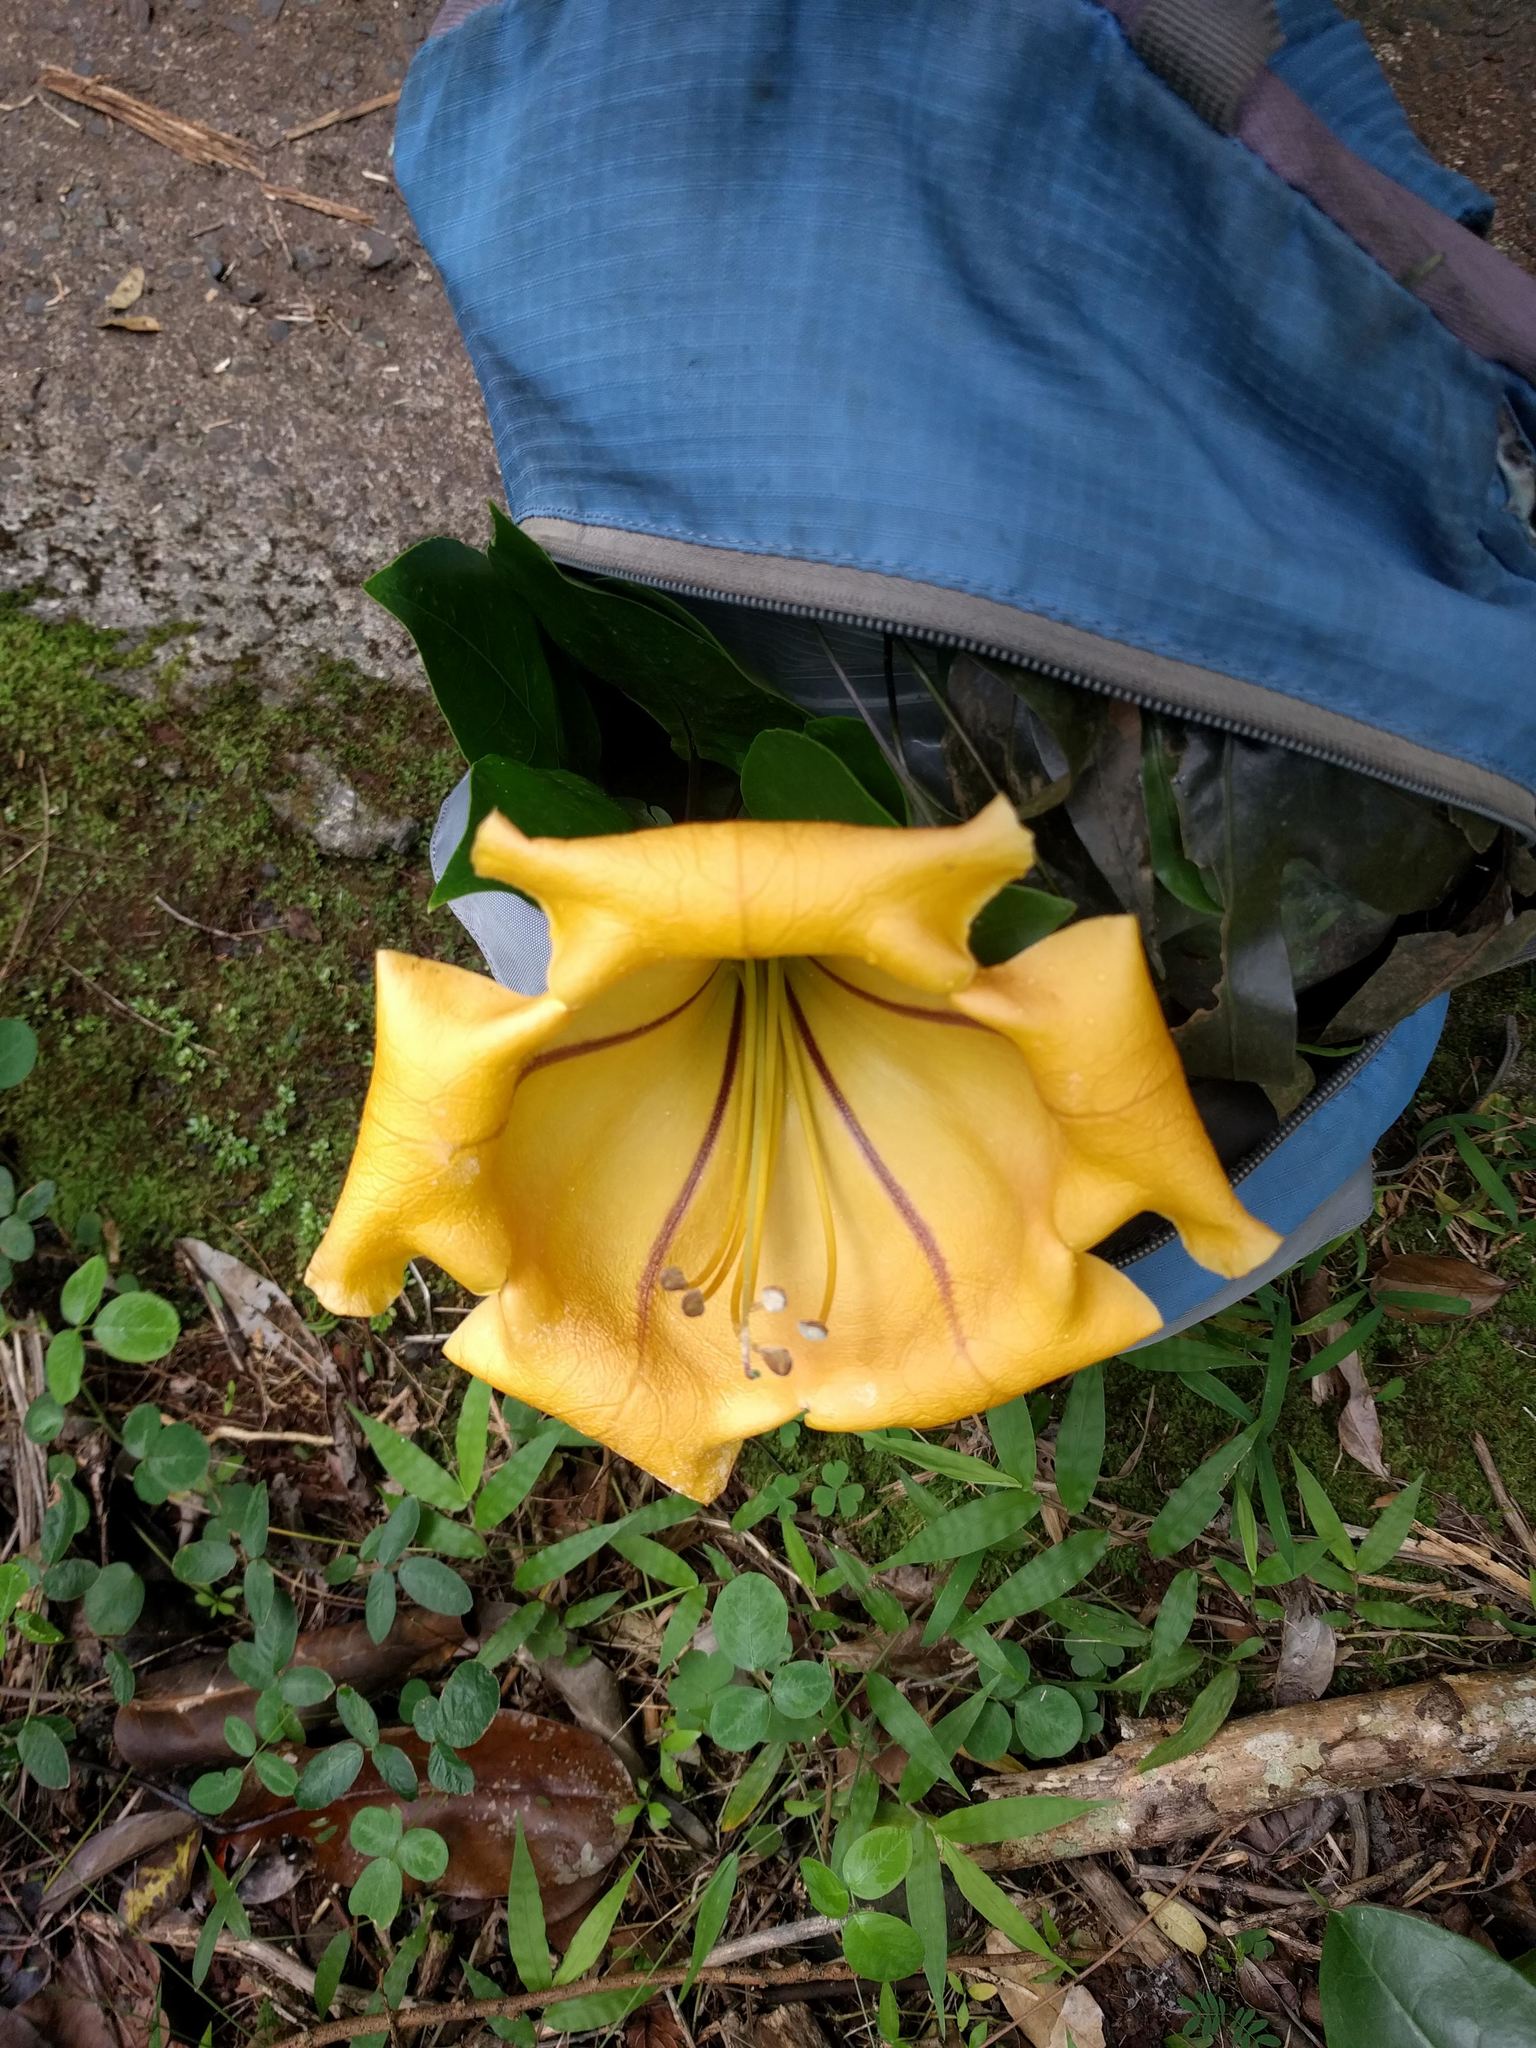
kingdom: Plantae
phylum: Tracheophyta
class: Magnoliopsida
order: Solanales
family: Solanaceae
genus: Solandra
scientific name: Solandra maxima
